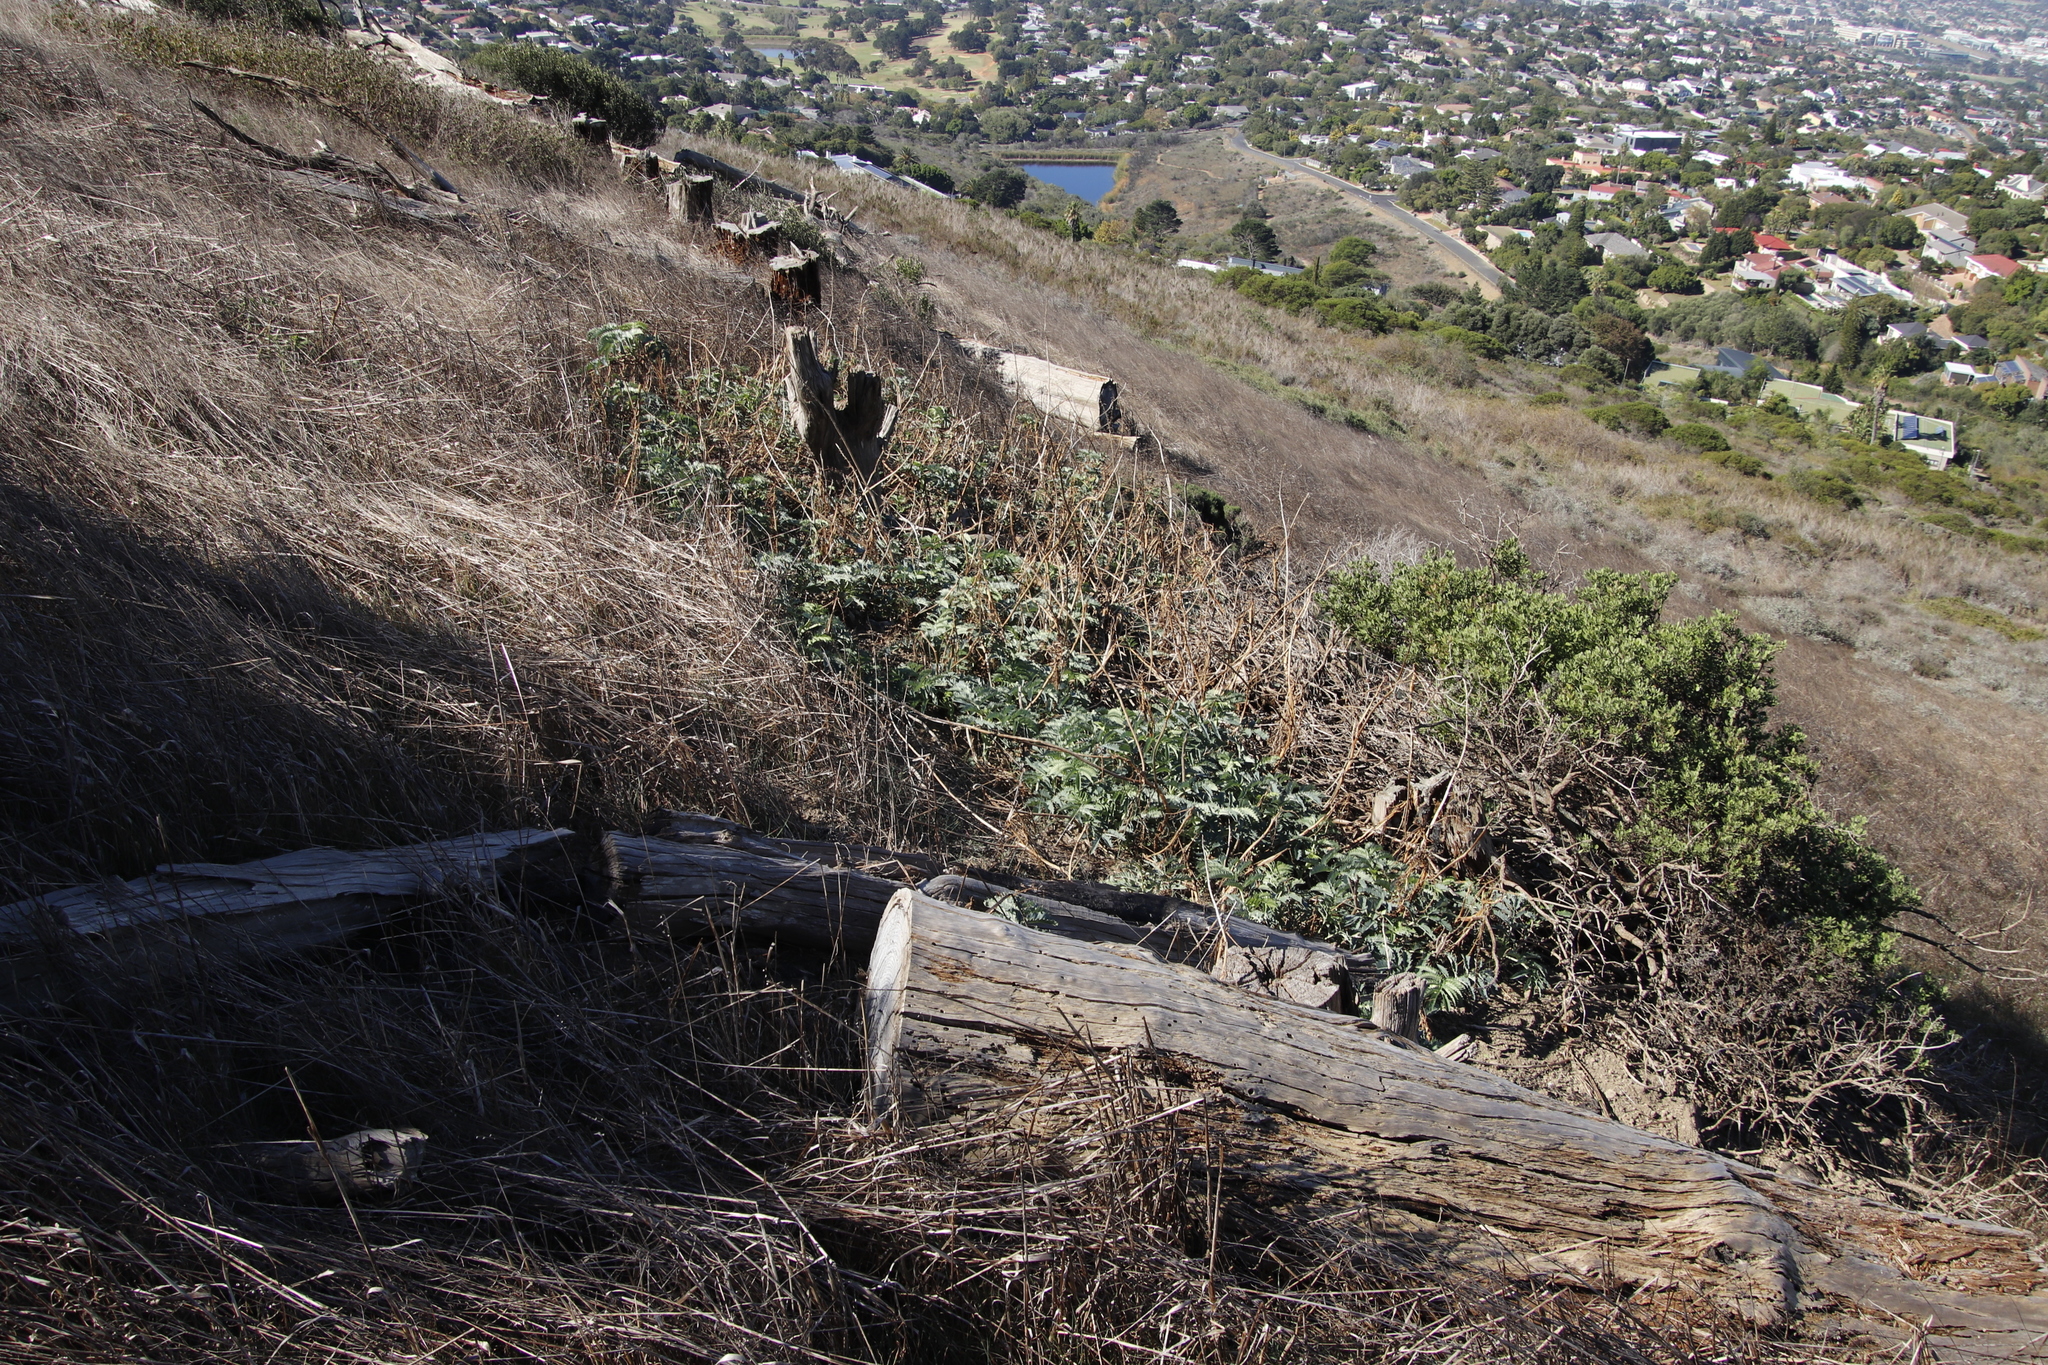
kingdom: Plantae
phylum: Tracheophyta
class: Magnoliopsida
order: Geraniales
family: Melianthaceae
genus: Melianthus
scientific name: Melianthus major
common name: Honey-flower
